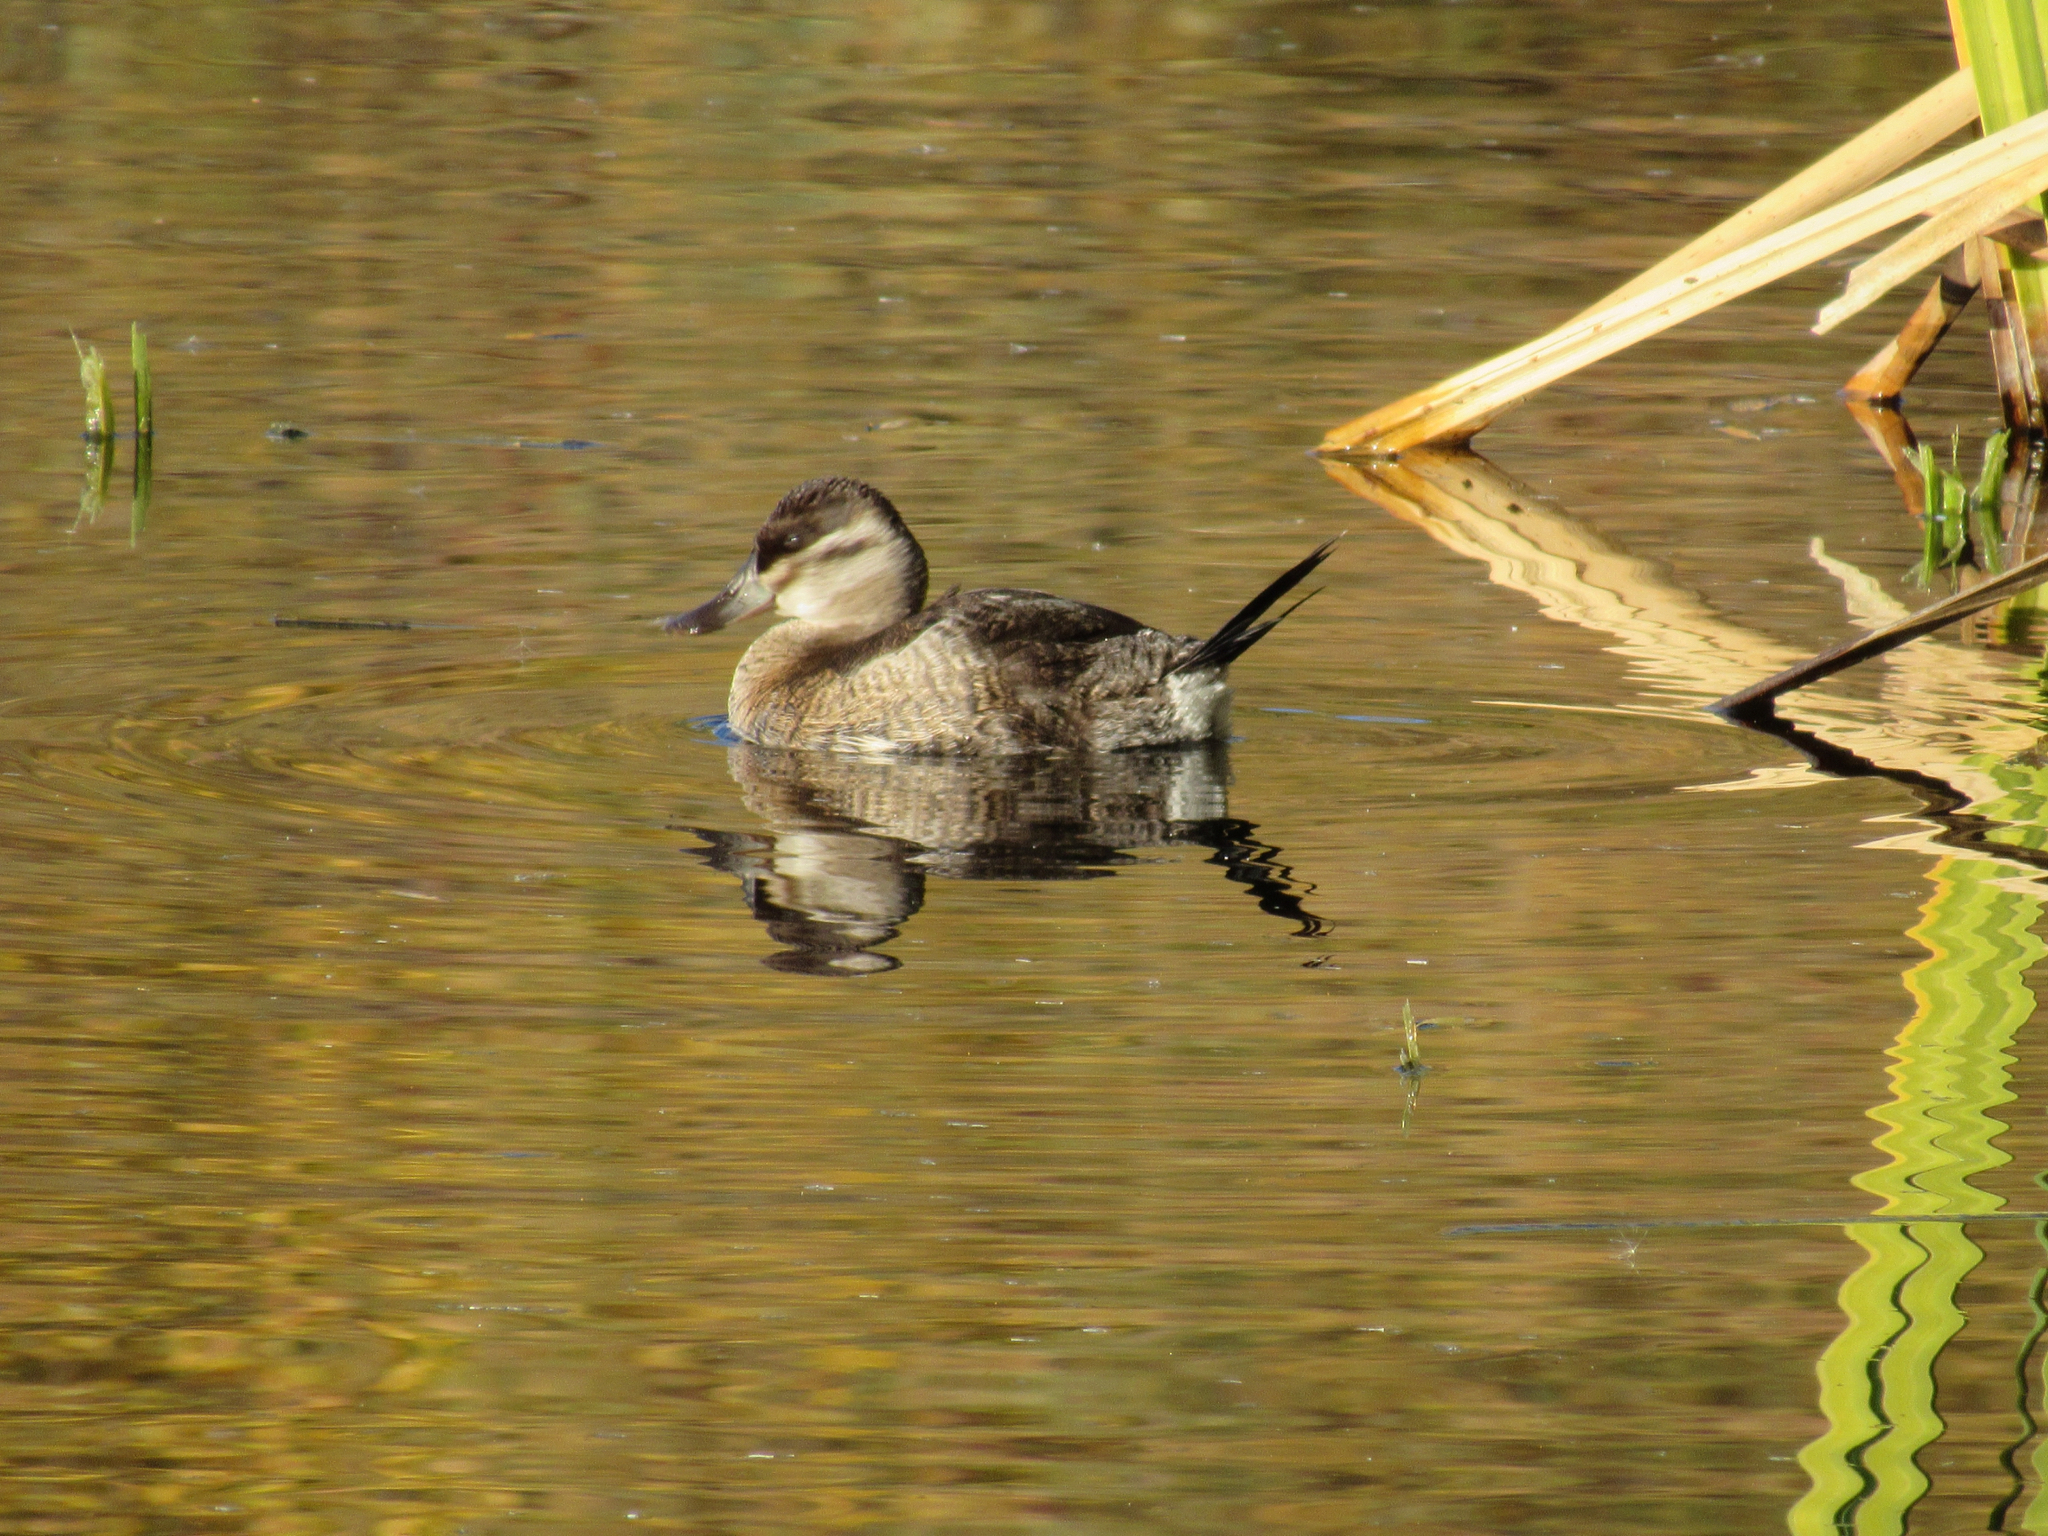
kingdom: Animalia
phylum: Chordata
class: Aves
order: Anseriformes
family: Anatidae
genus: Oxyura
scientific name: Oxyura jamaicensis
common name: Ruddy duck
